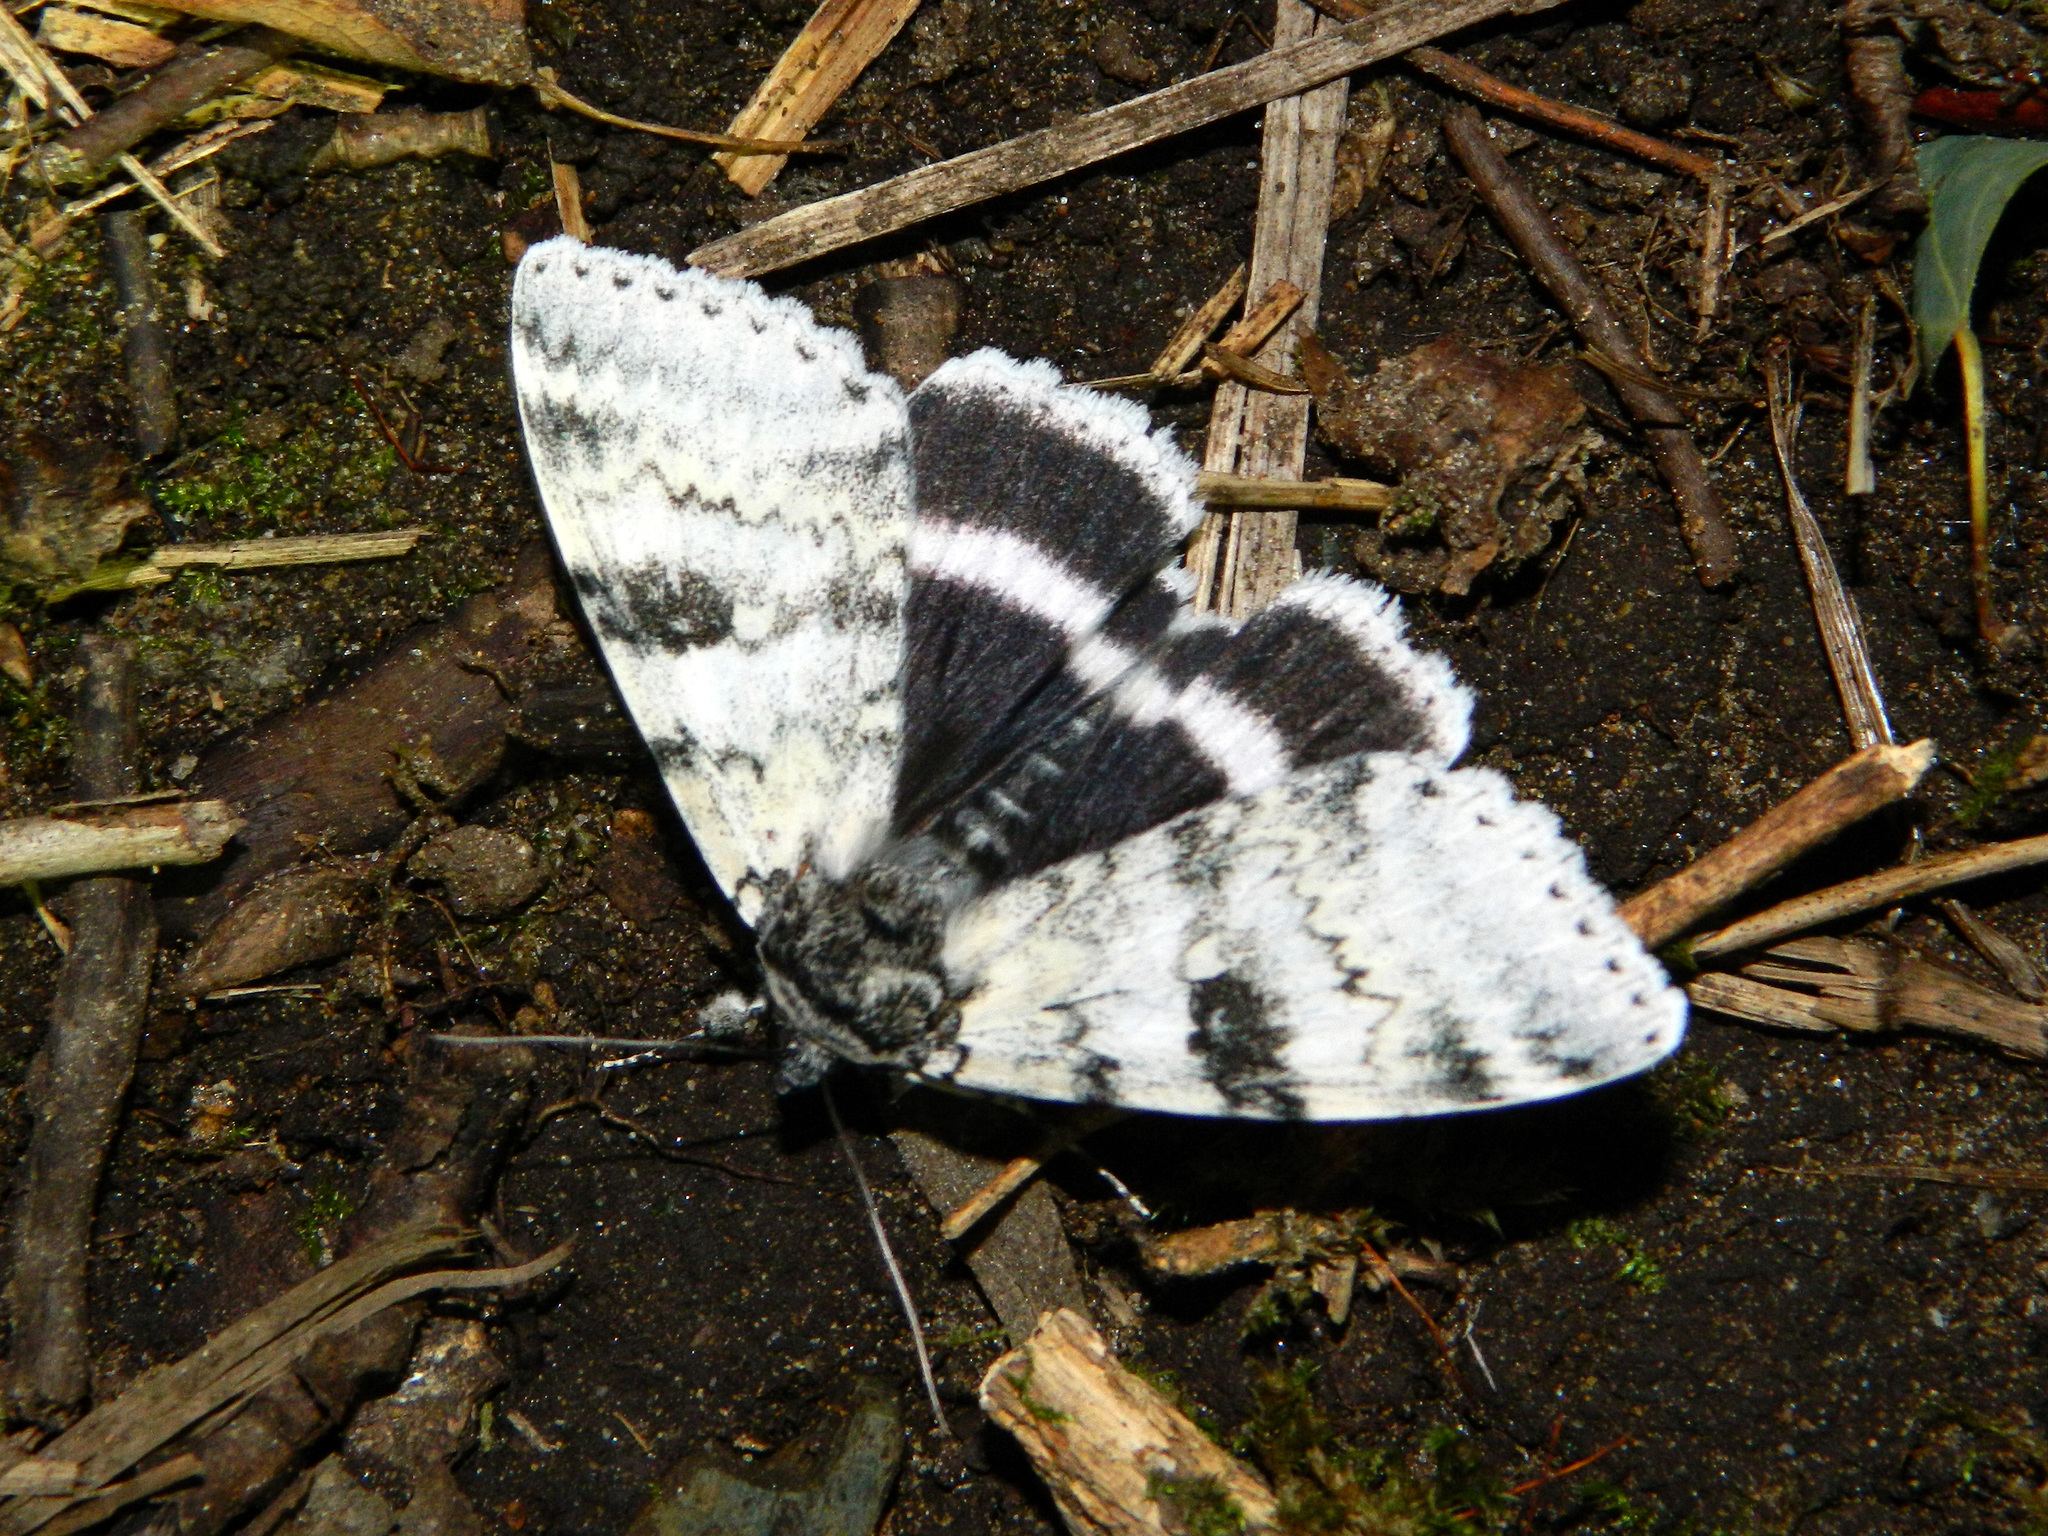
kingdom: Animalia
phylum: Arthropoda
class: Insecta
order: Lepidoptera
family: Erebidae
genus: Catocala
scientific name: Catocala relicta
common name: White underwing
